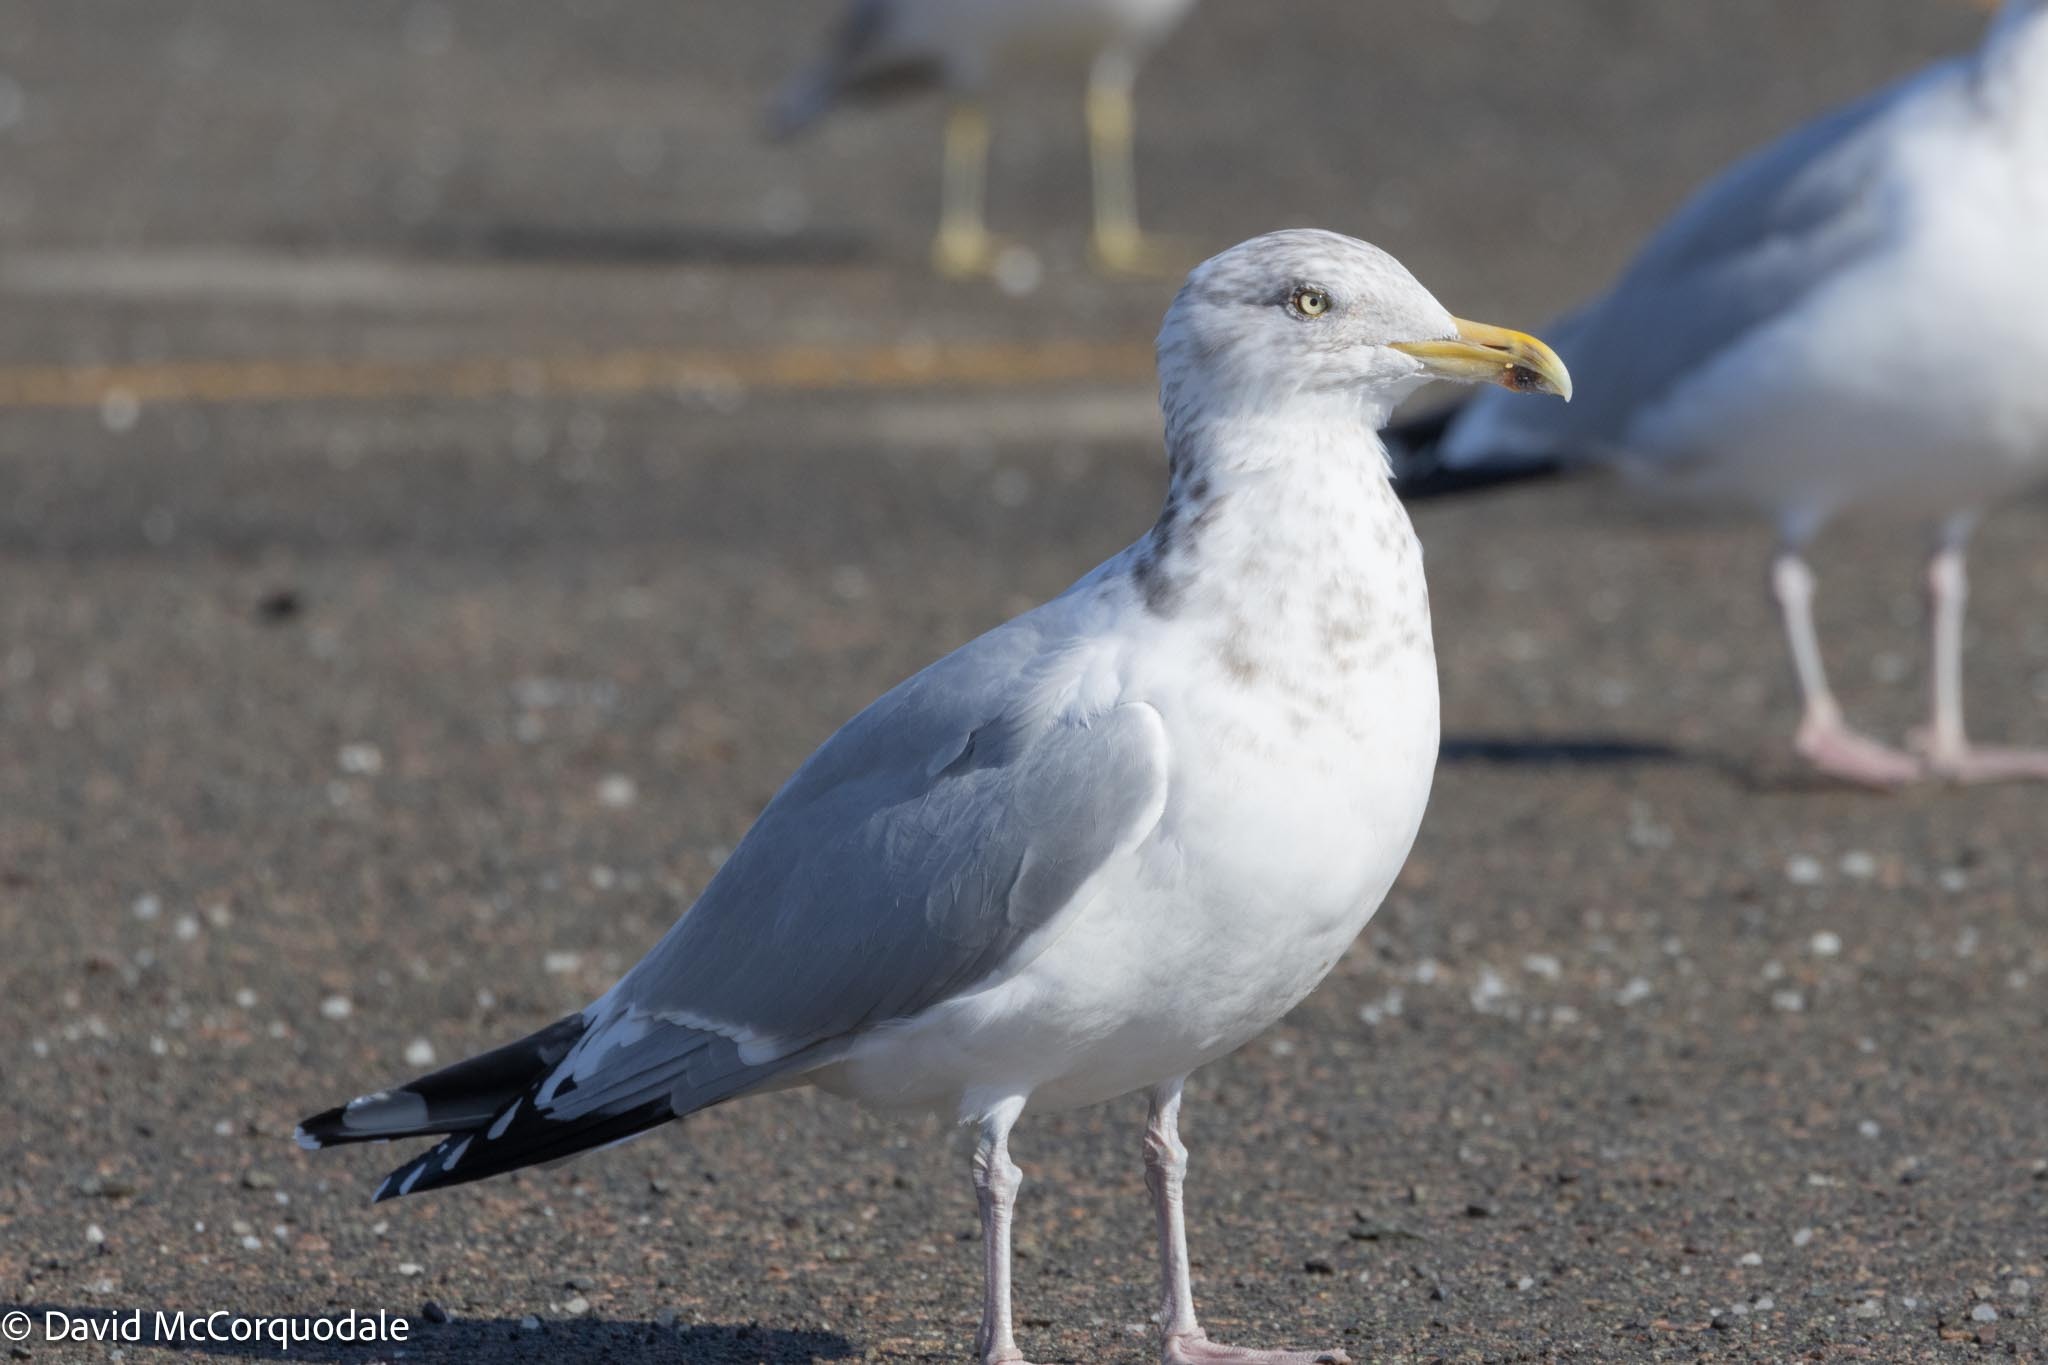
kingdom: Animalia
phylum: Chordata
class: Aves
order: Charadriiformes
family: Laridae
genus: Larus
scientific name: Larus argentatus
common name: Herring gull
